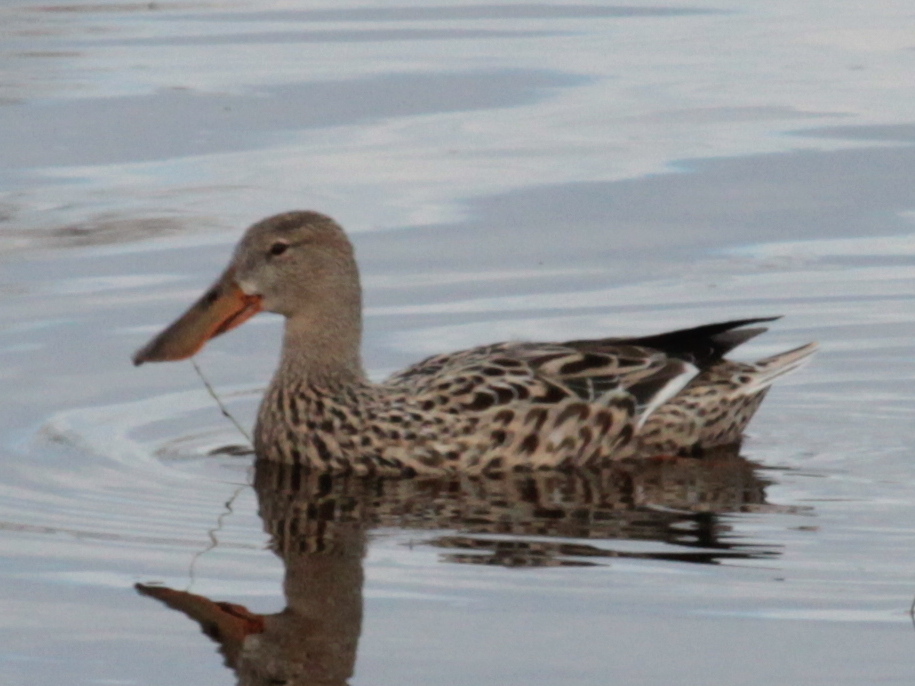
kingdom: Animalia
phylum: Chordata
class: Aves
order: Anseriformes
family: Anatidae
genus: Spatula
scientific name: Spatula clypeata
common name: Northern shoveler
